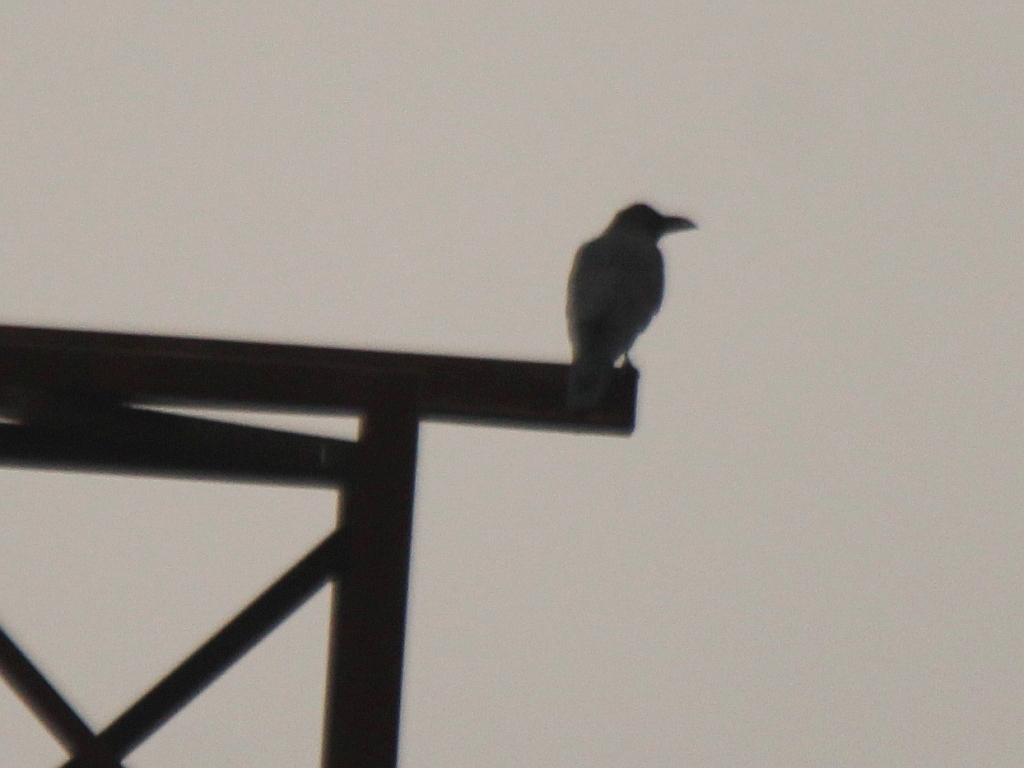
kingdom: Animalia
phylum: Chordata
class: Aves
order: Passeriformes
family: Corvidae
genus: Corvus
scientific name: Corvus macrorhynchos
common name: Large-billed crow
